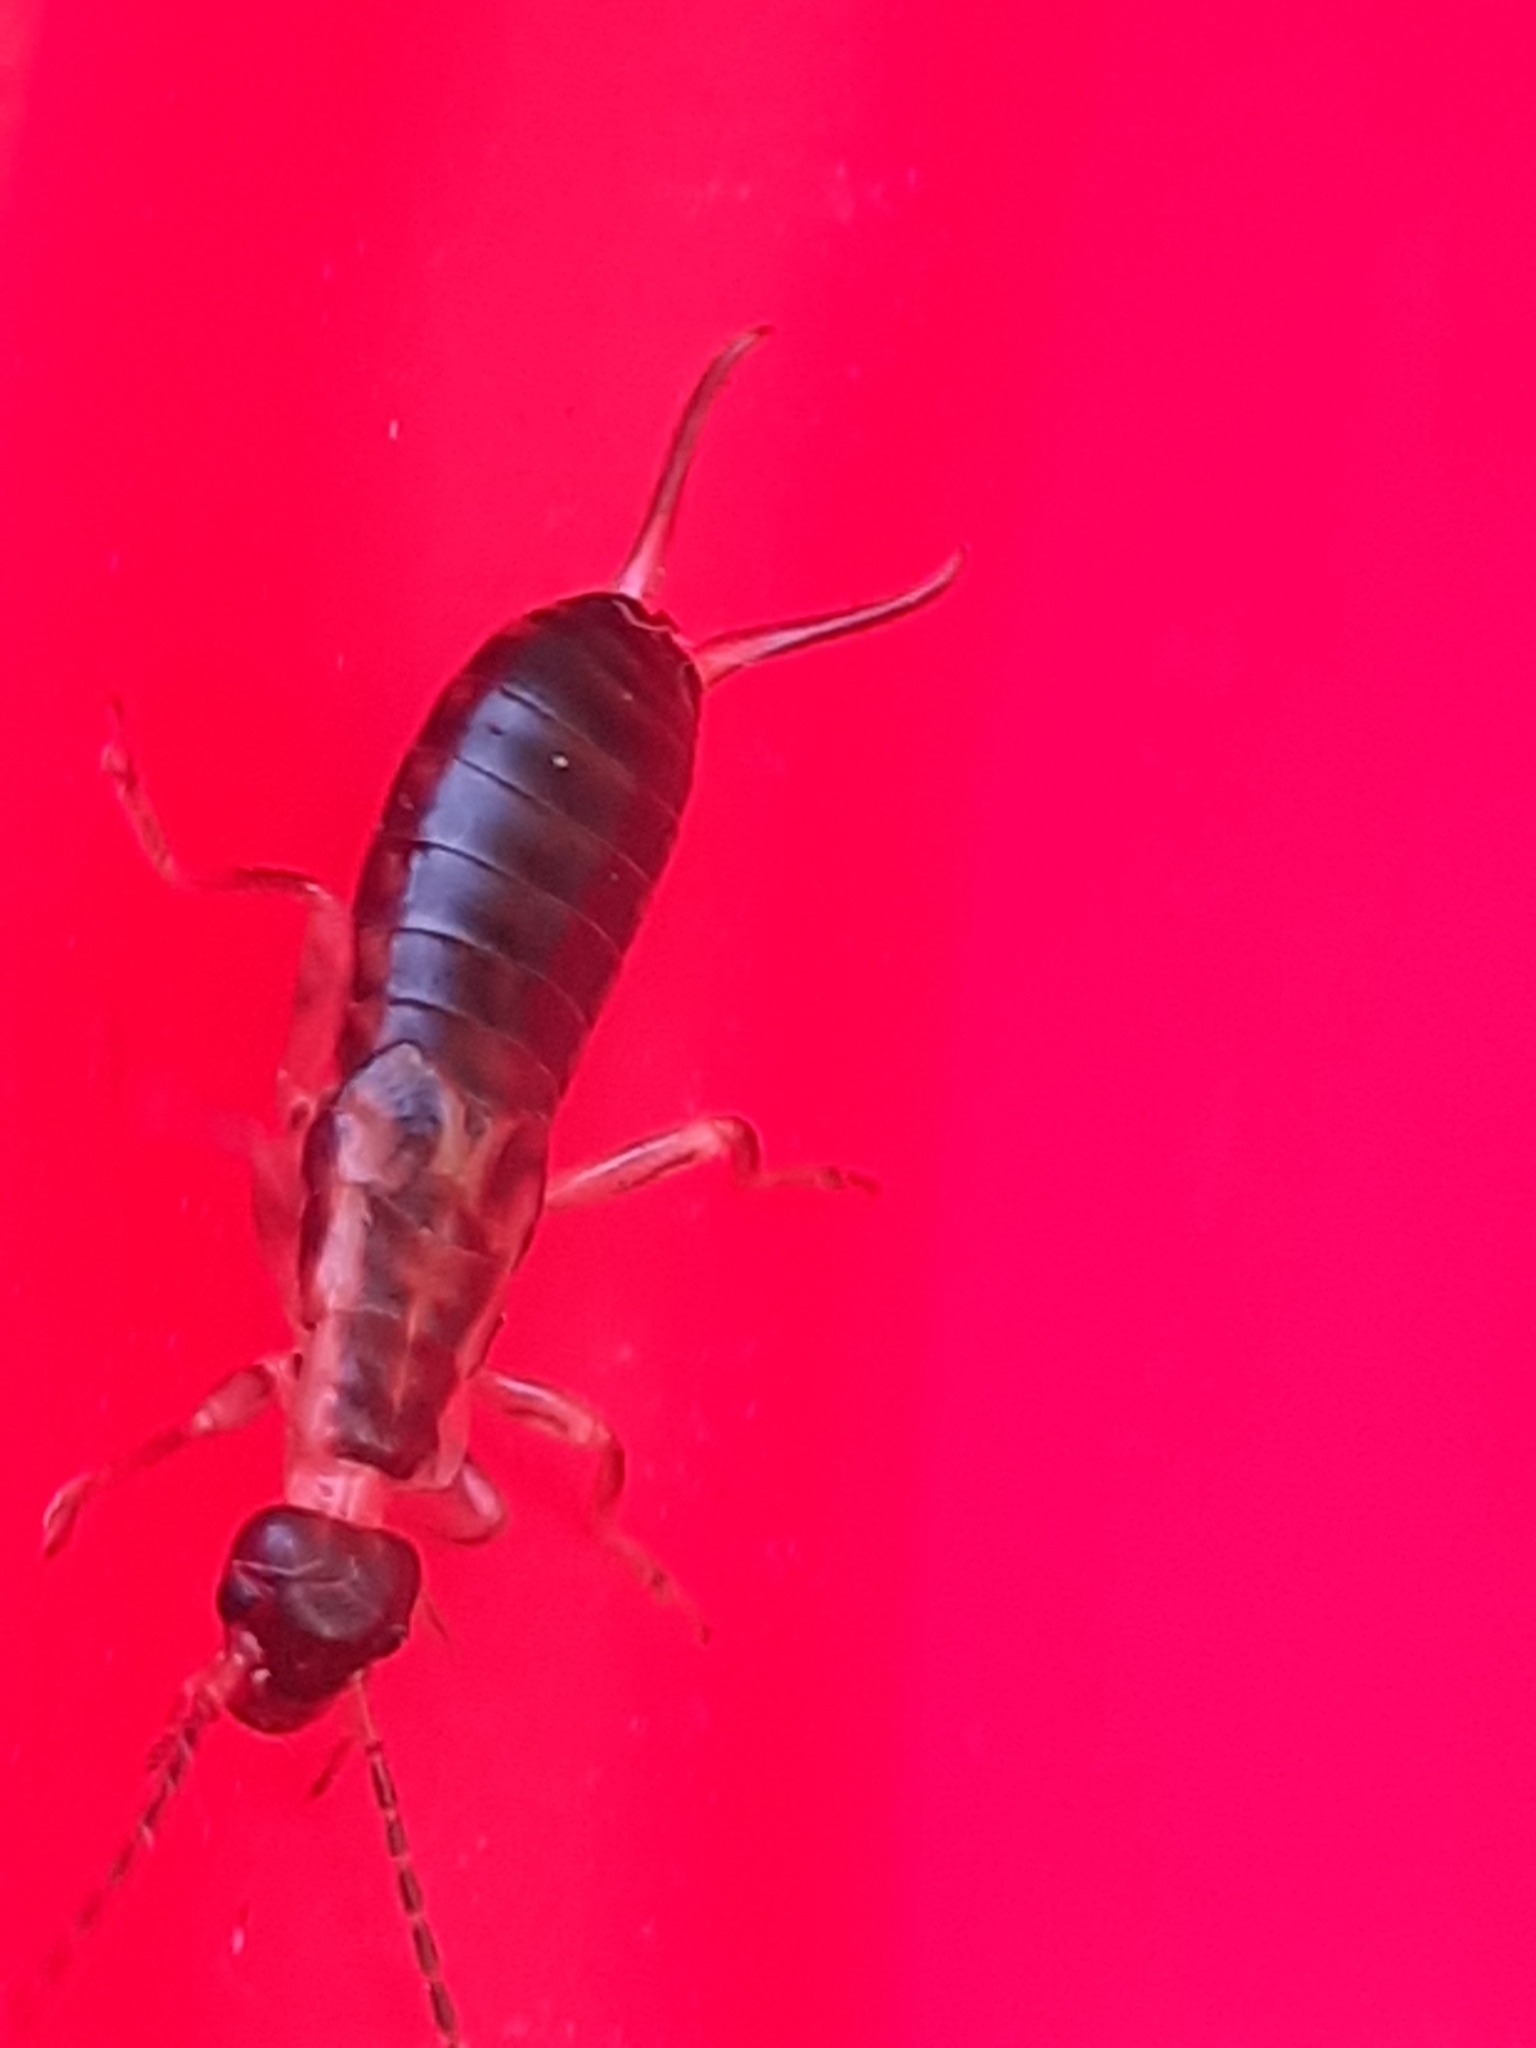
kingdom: Animalia
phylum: Arthropoda
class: Insecta
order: Dermaptera
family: Forficulidae
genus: Forficula
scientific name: Forficula
